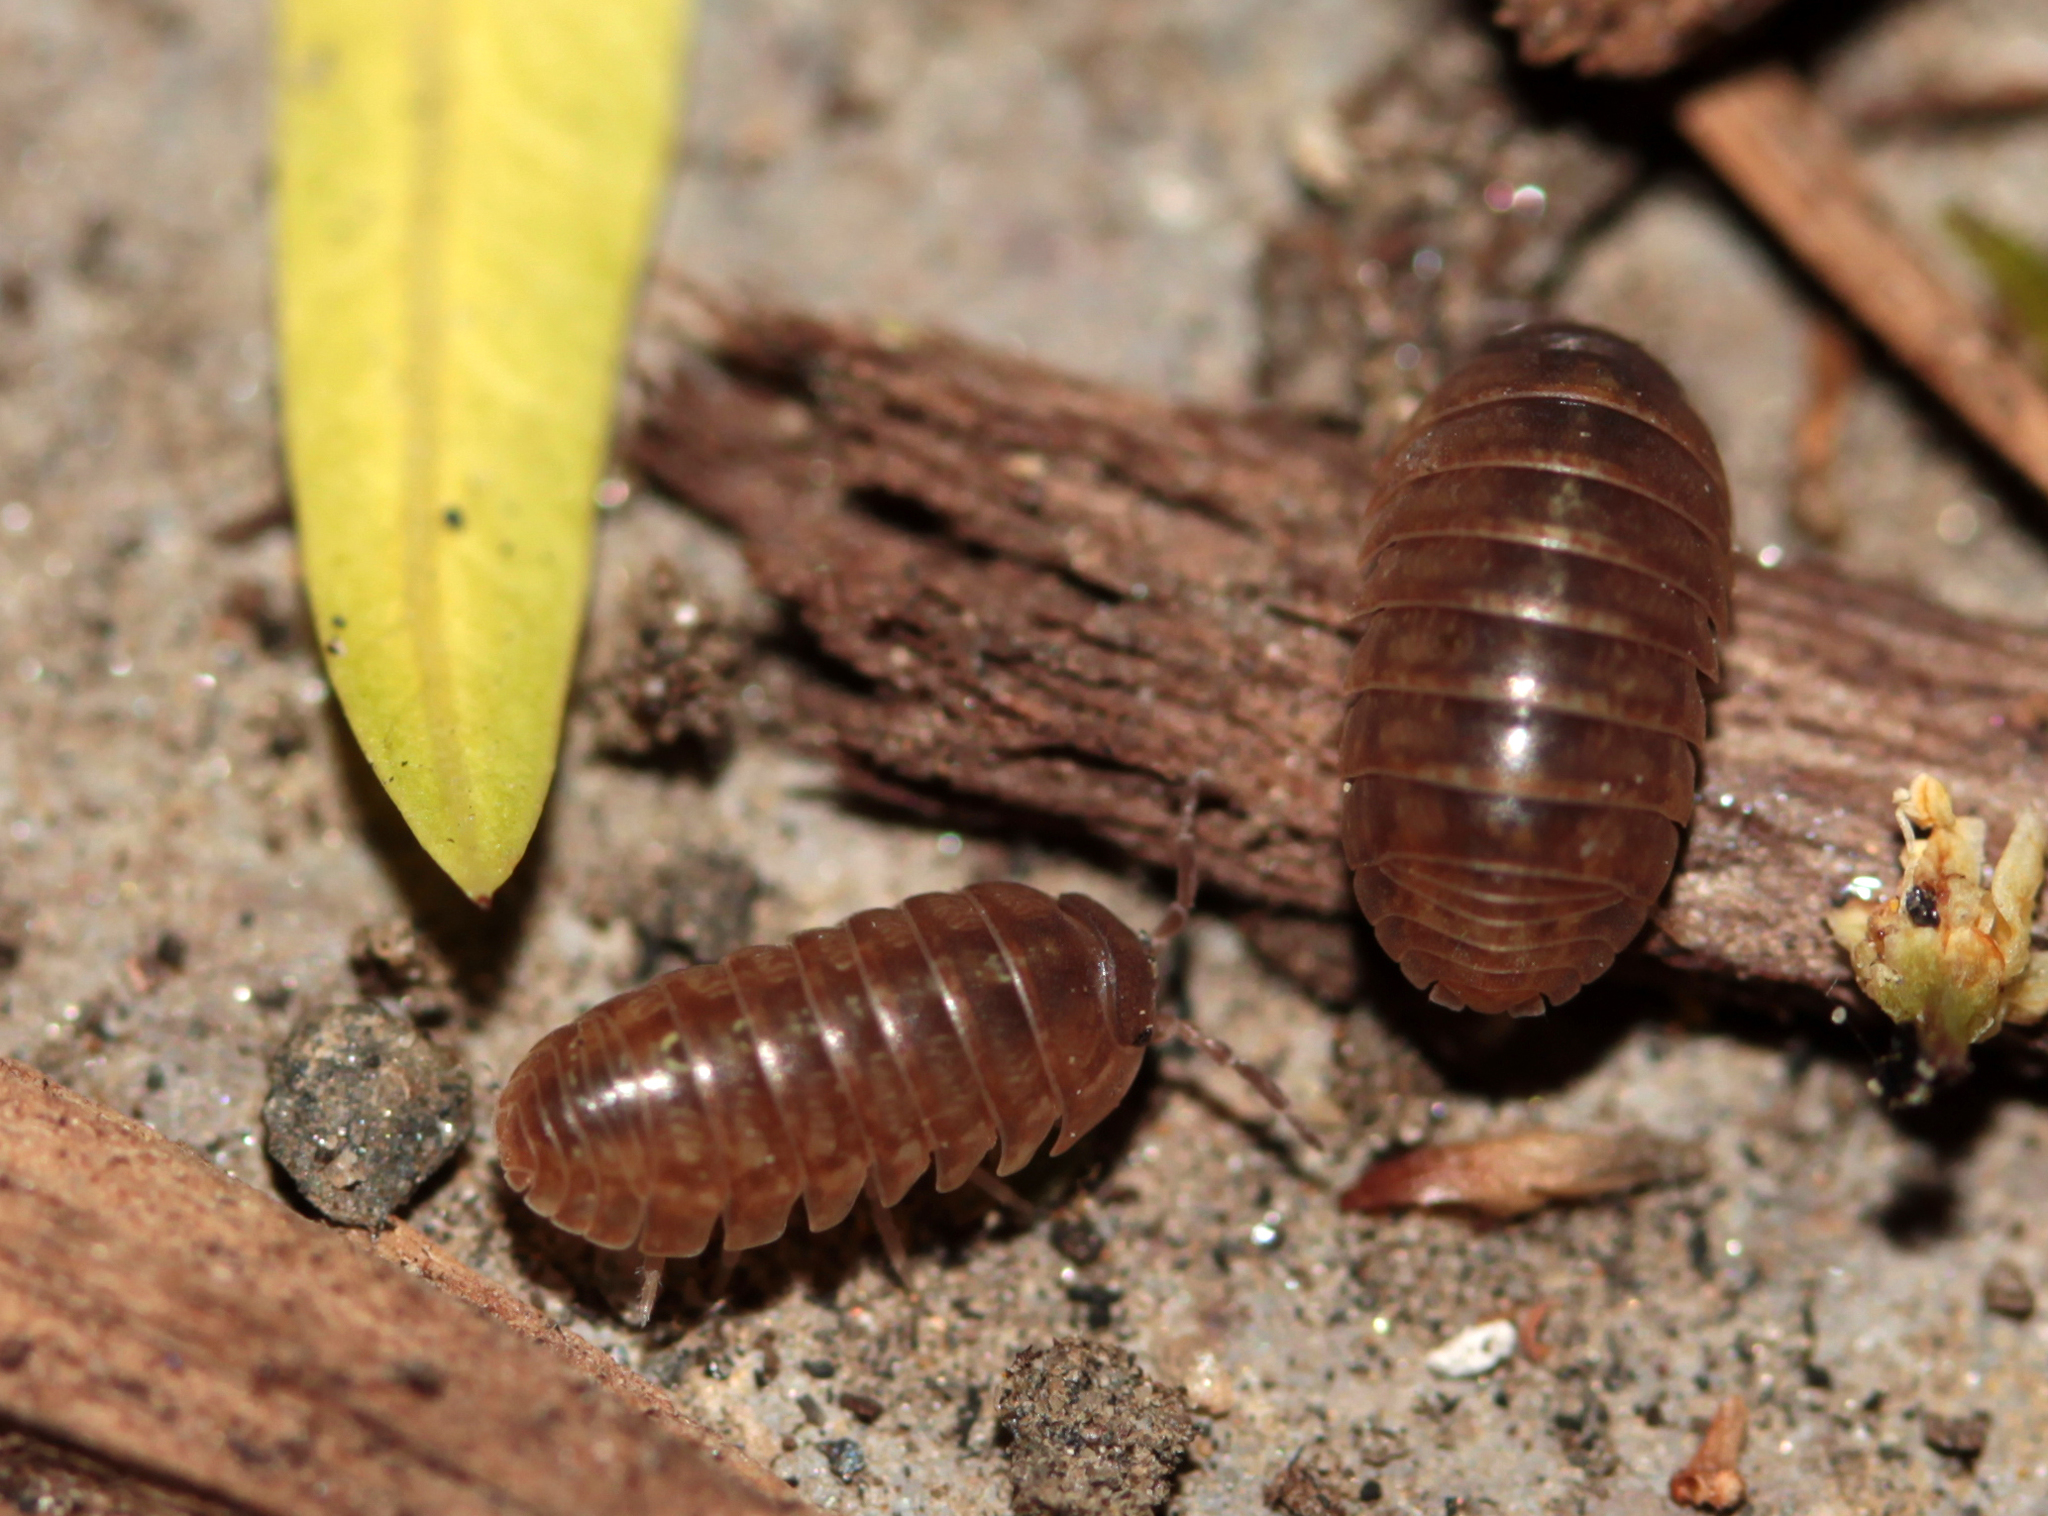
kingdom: Animalia
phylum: Arthropoda
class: Malacostraca
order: Isopoda
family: Armadillidiidae
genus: Armadillidium
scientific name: Armadillidium vulgare
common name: Common pill woodlouse
